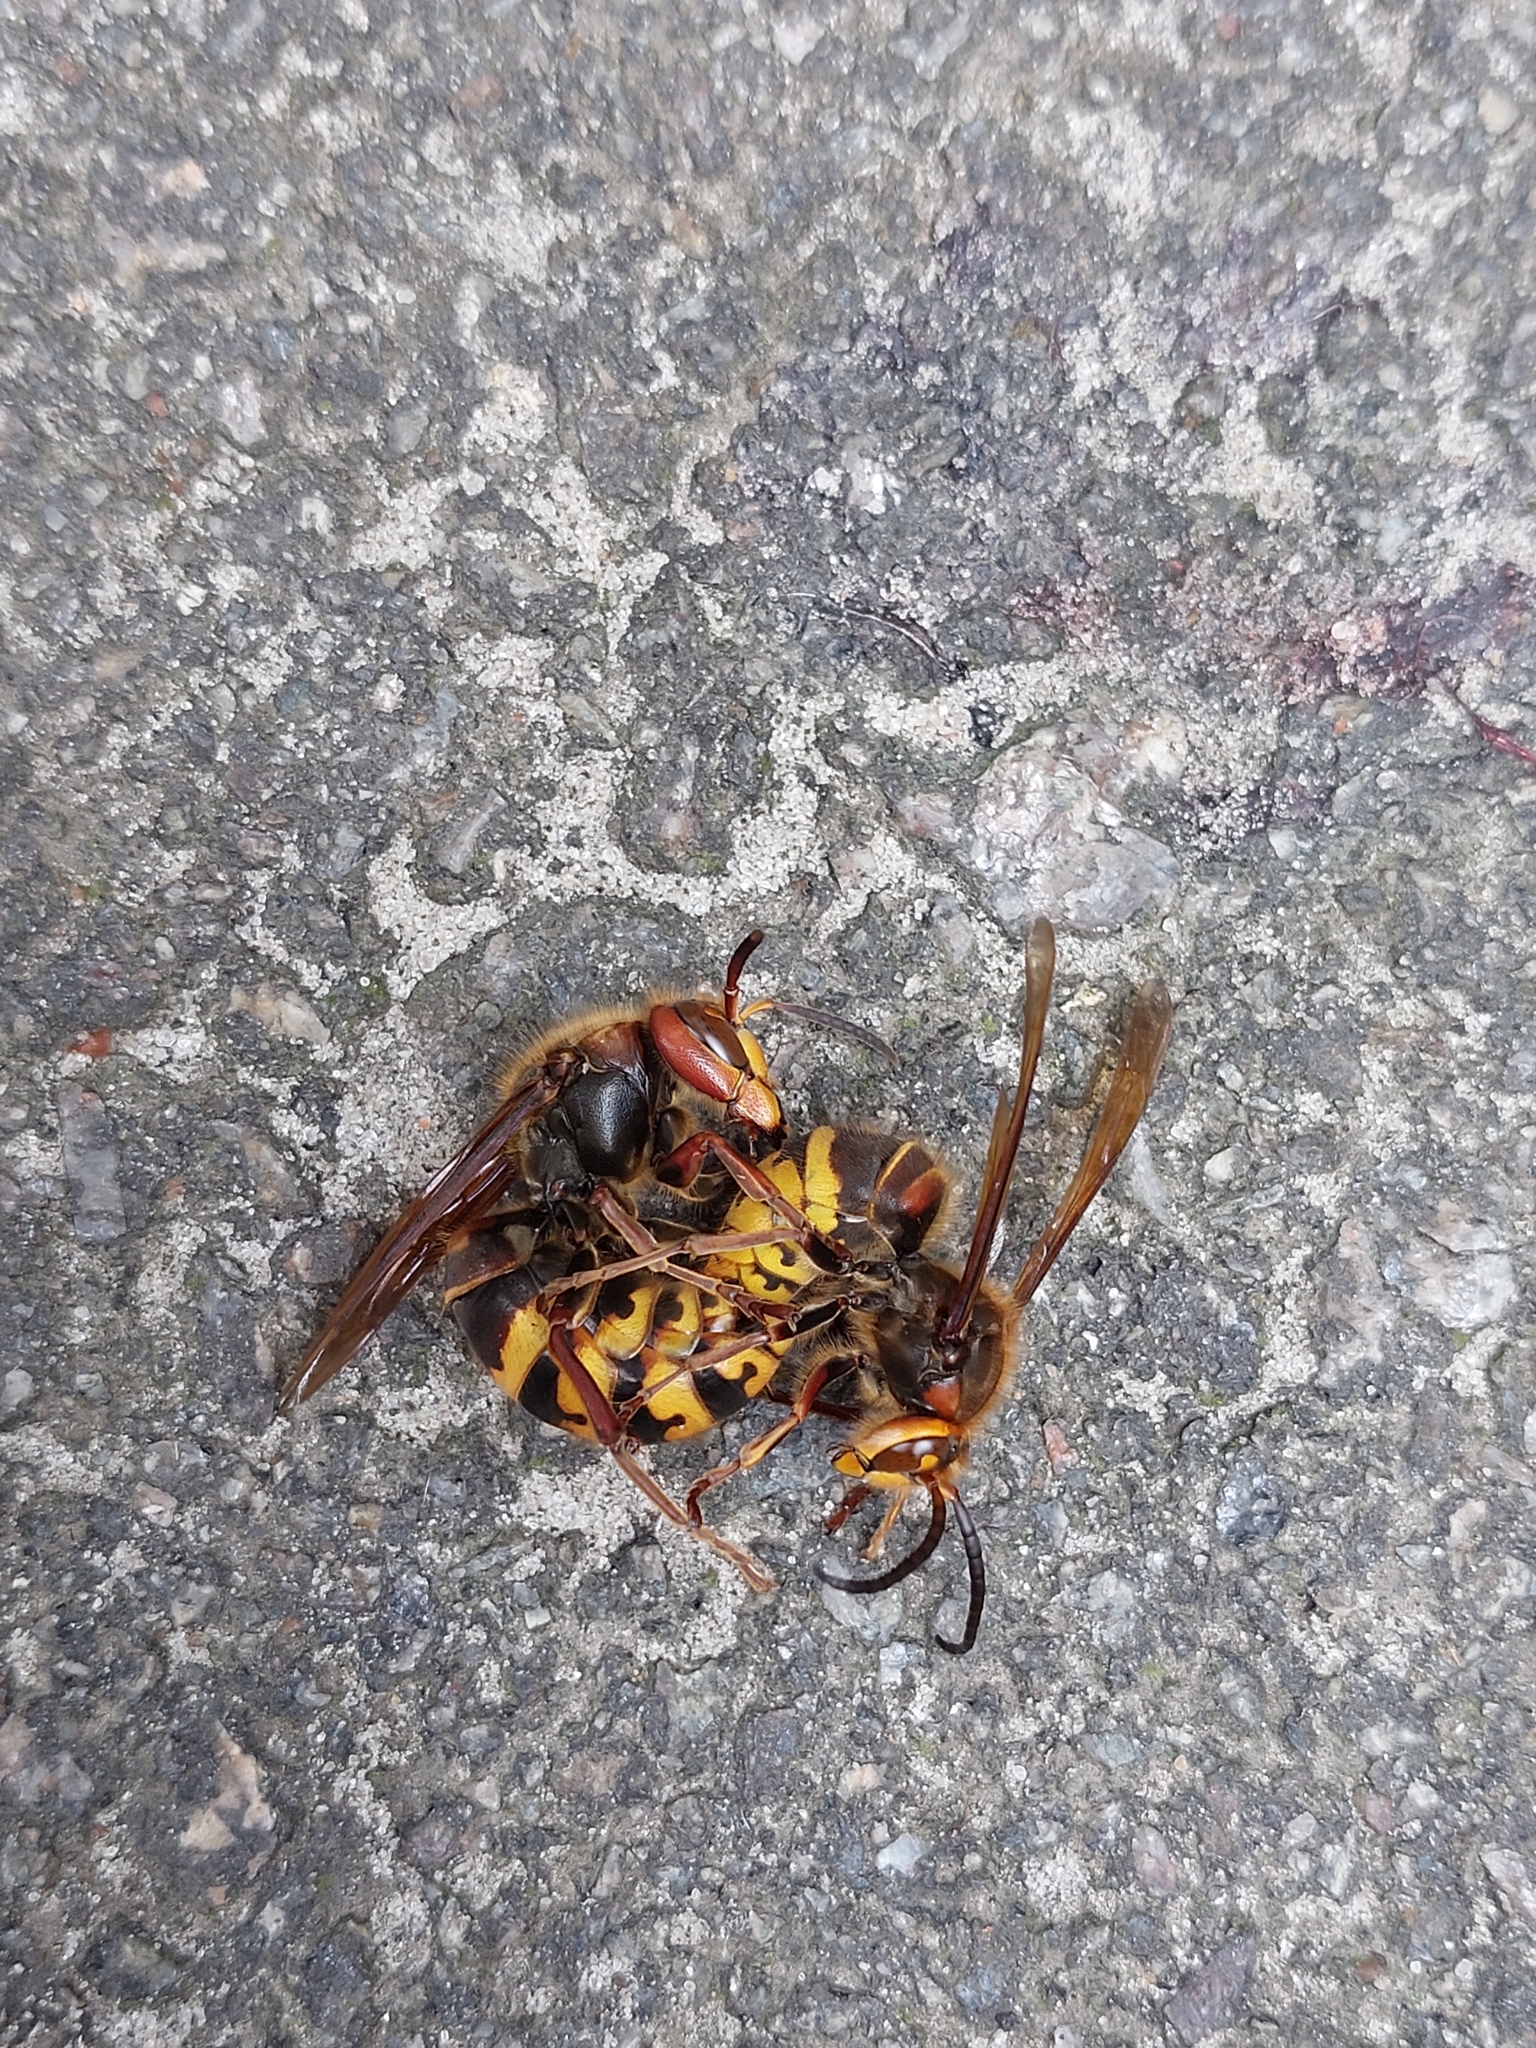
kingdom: Animalia
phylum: Arthropoda
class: Insecta
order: Hymenoptera
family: Vespidae
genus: Vespa
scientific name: Vespa crabro
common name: Hornet
